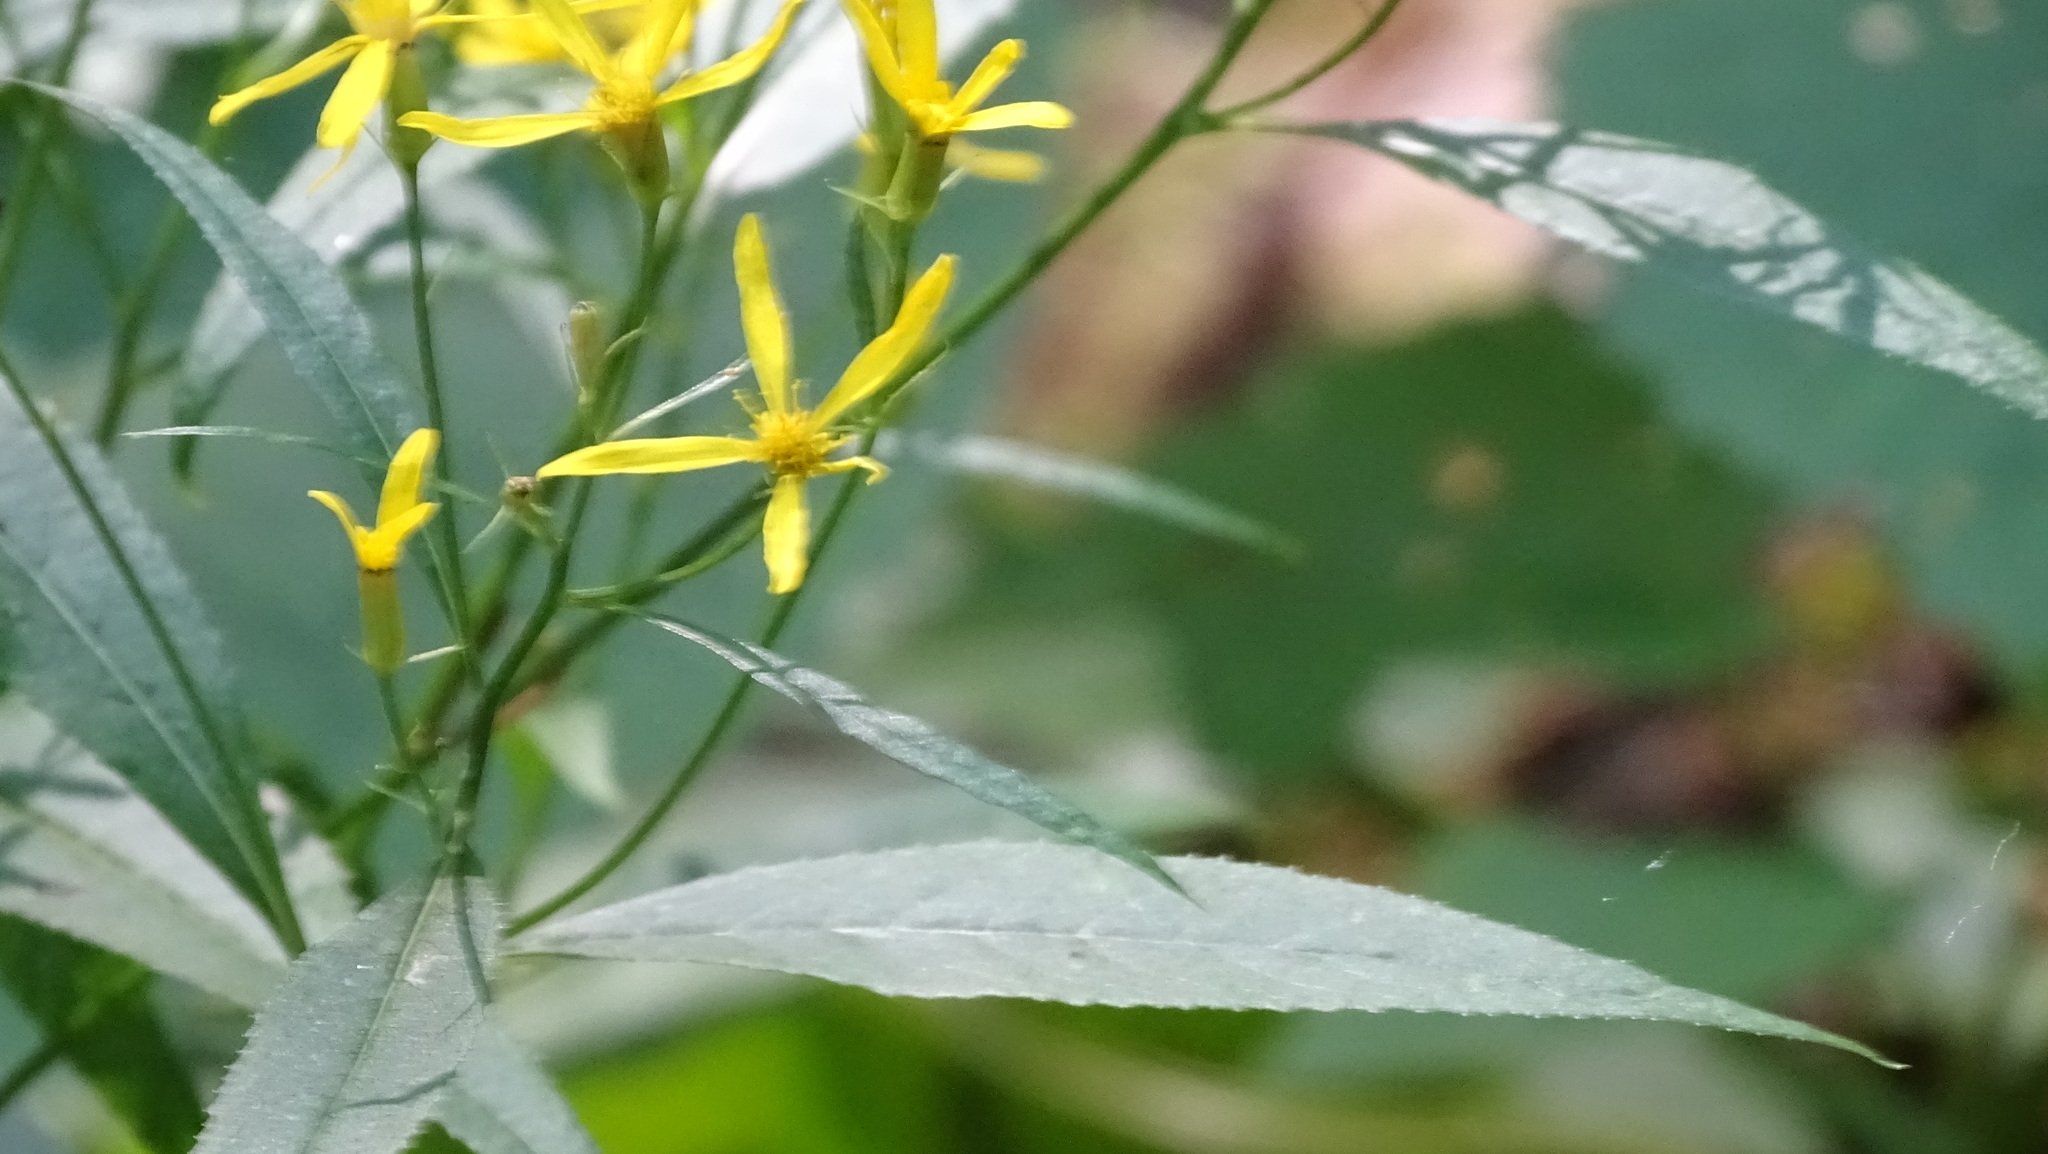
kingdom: Plantae
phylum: Tracheophyta
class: Magnoliopsida
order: Asterales
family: Asteraceae
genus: Senecio
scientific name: Senecio ovatus
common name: Wood ragwort
